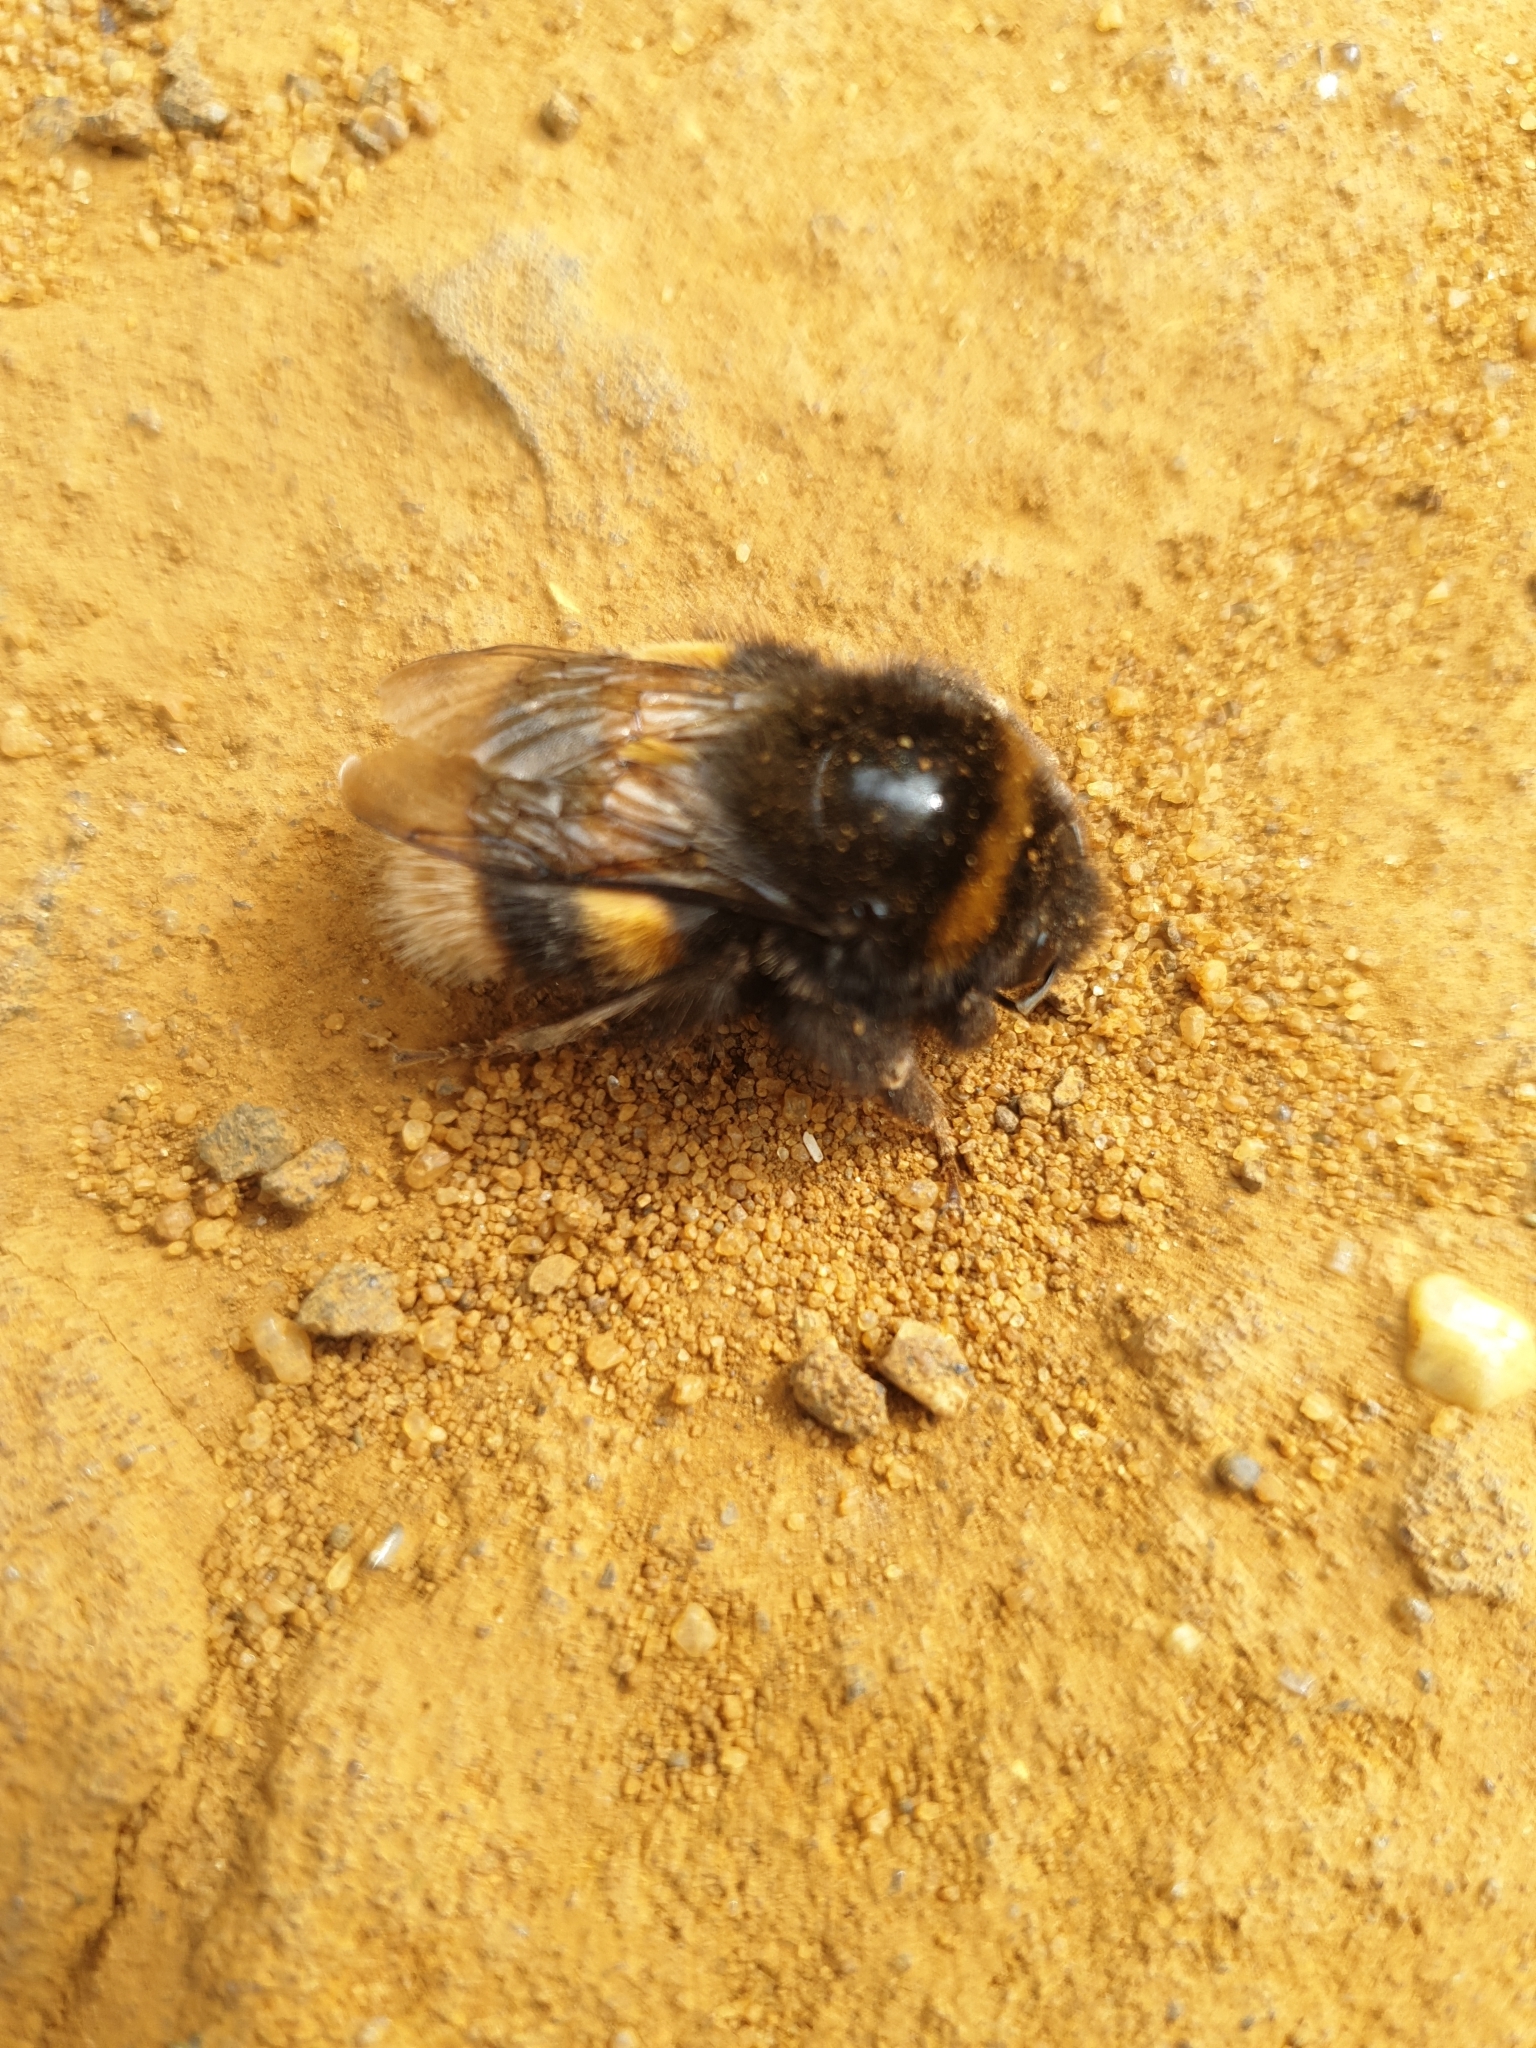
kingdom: Animalia
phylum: Arthropoda
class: Insecta
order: Hymenoptera
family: Apidae
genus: Bombus
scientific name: Bombus terrestris
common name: Buff-tailed bumblebee
